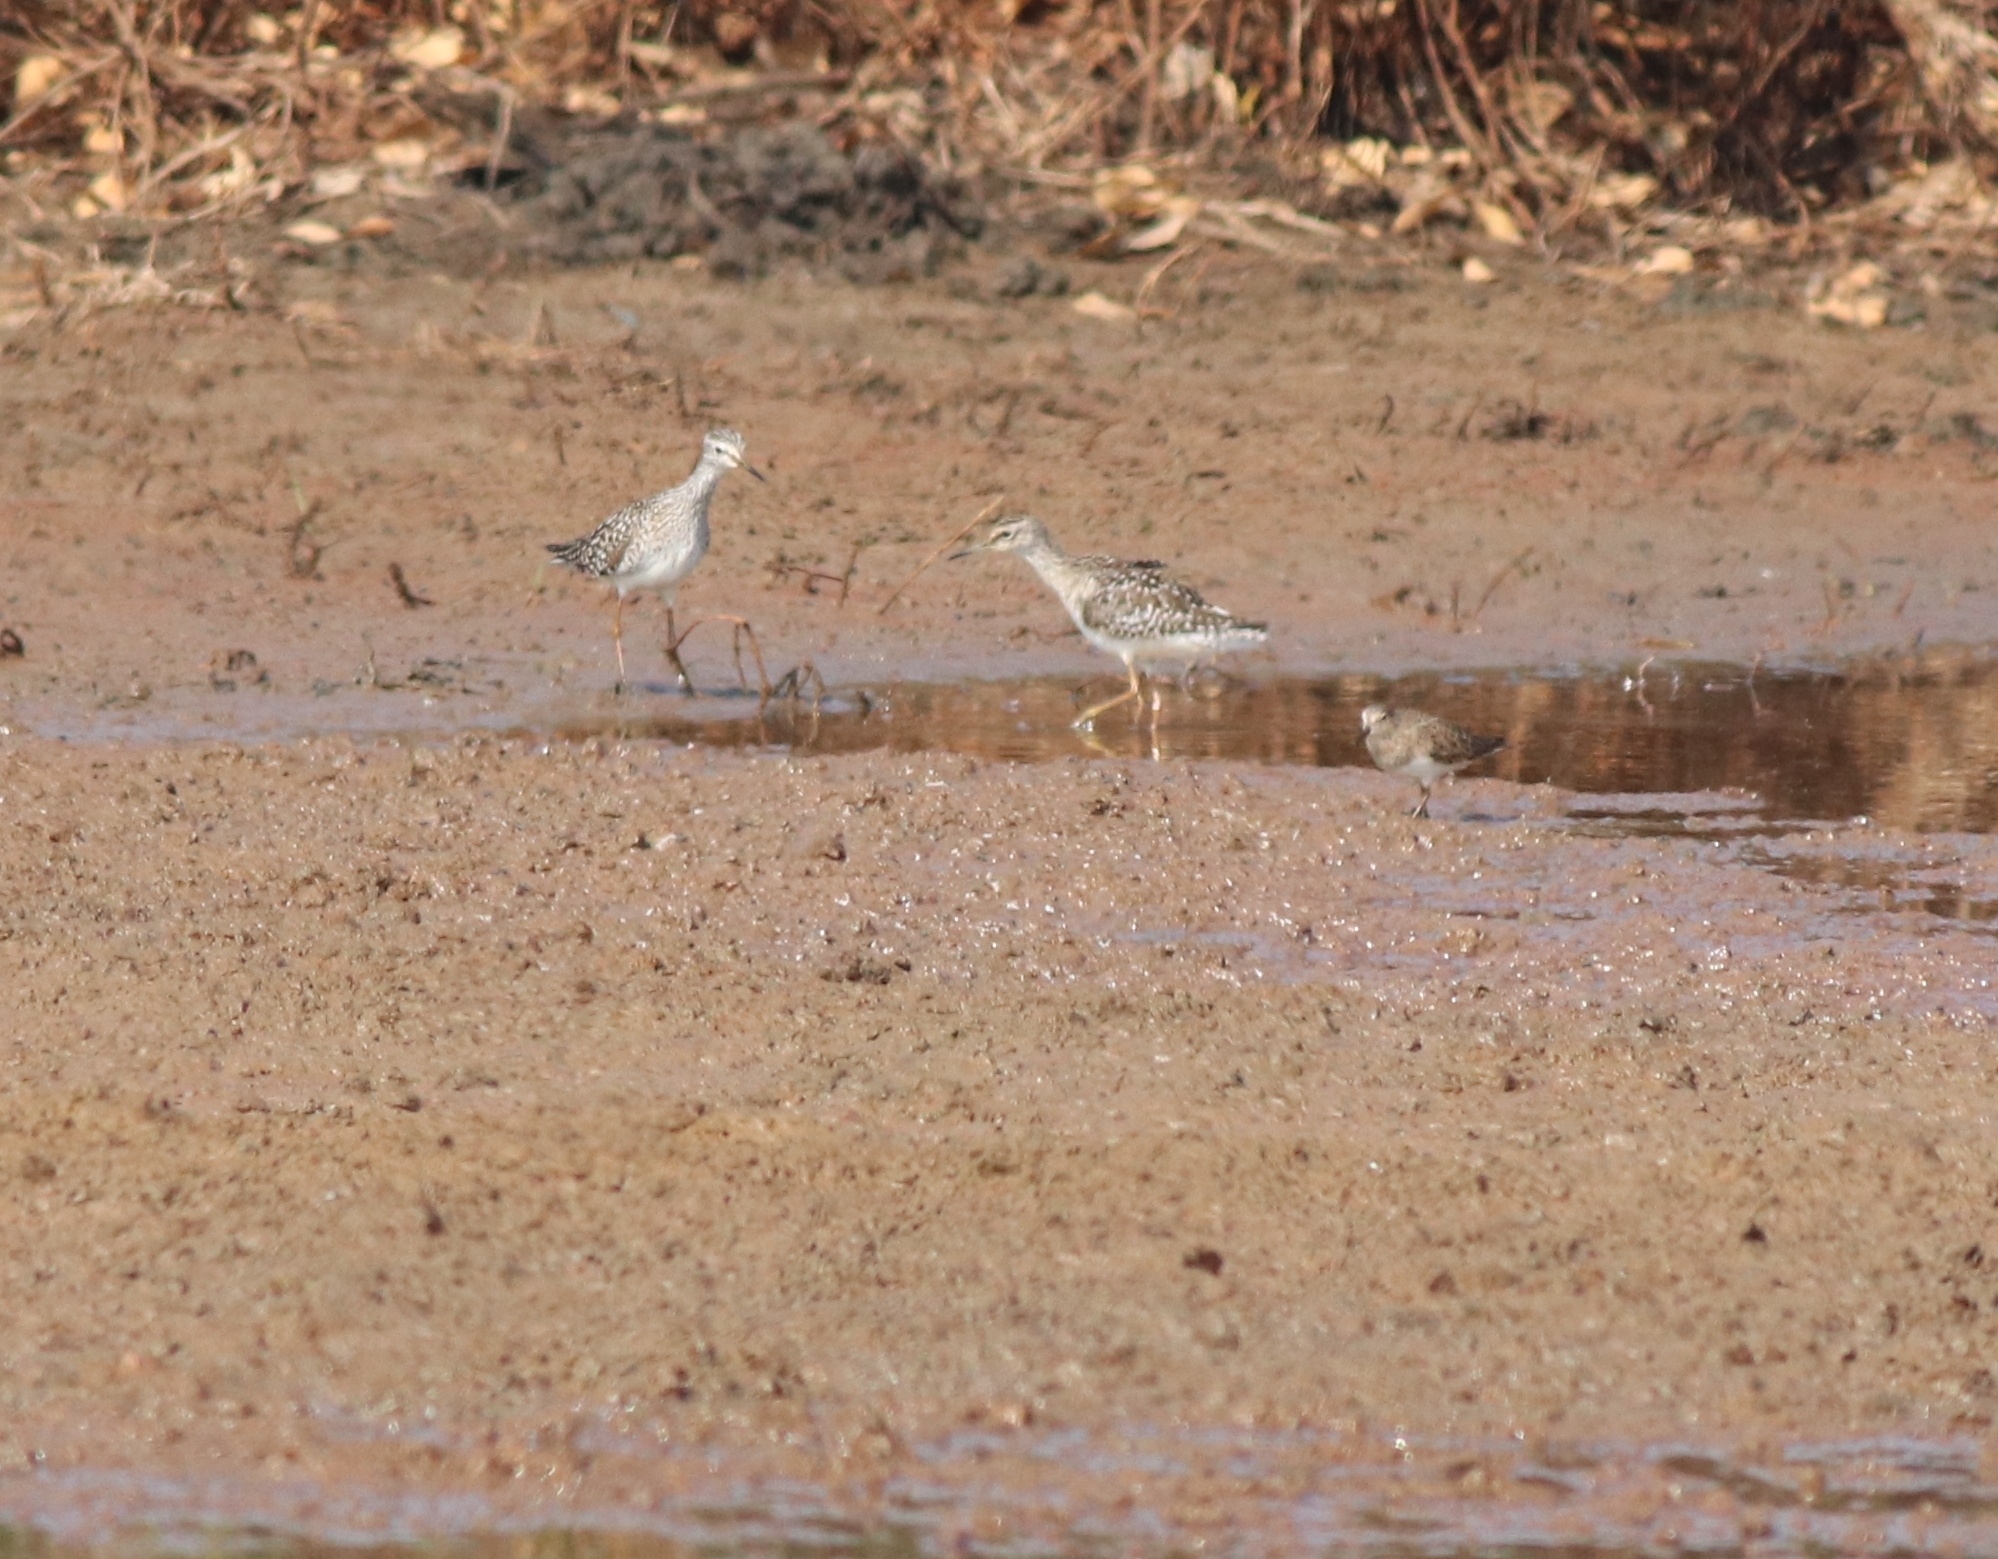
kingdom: Animalia
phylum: Chordata
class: Aves
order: Charadriiformes
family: Scolopacidae
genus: Tringa
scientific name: Tringa glareola
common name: Wood sandpiper
